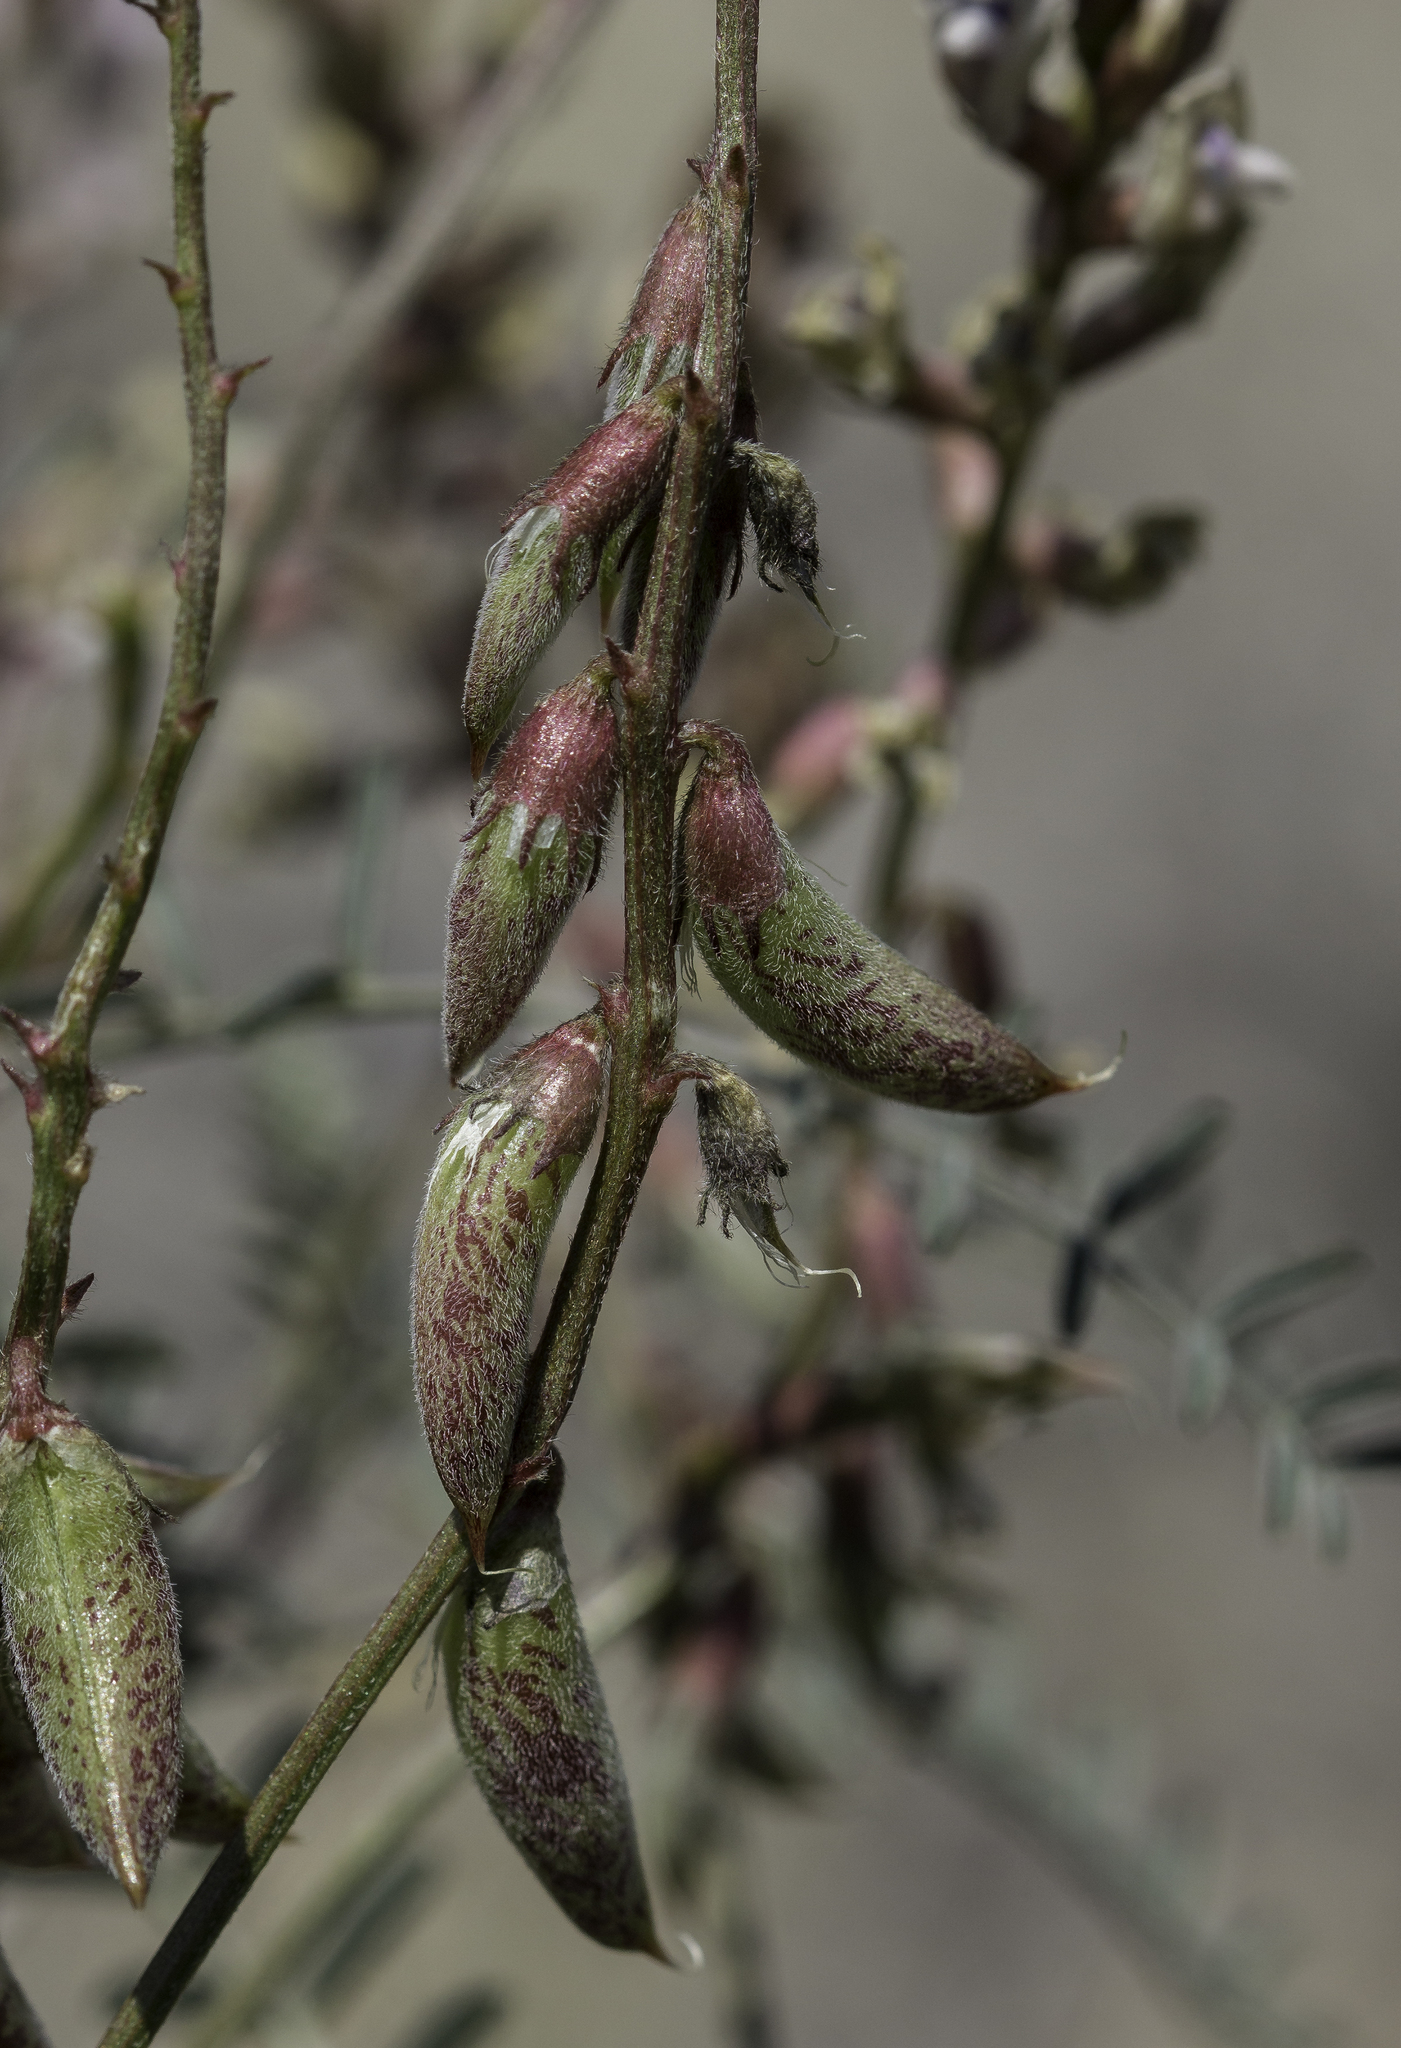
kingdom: Plantae
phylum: Tracheophyta
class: Magnoliopsida
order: Fabales
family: Fabaceae
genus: Astragalus
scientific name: Astragalus flexuosus
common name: Pliant milk-vetch
